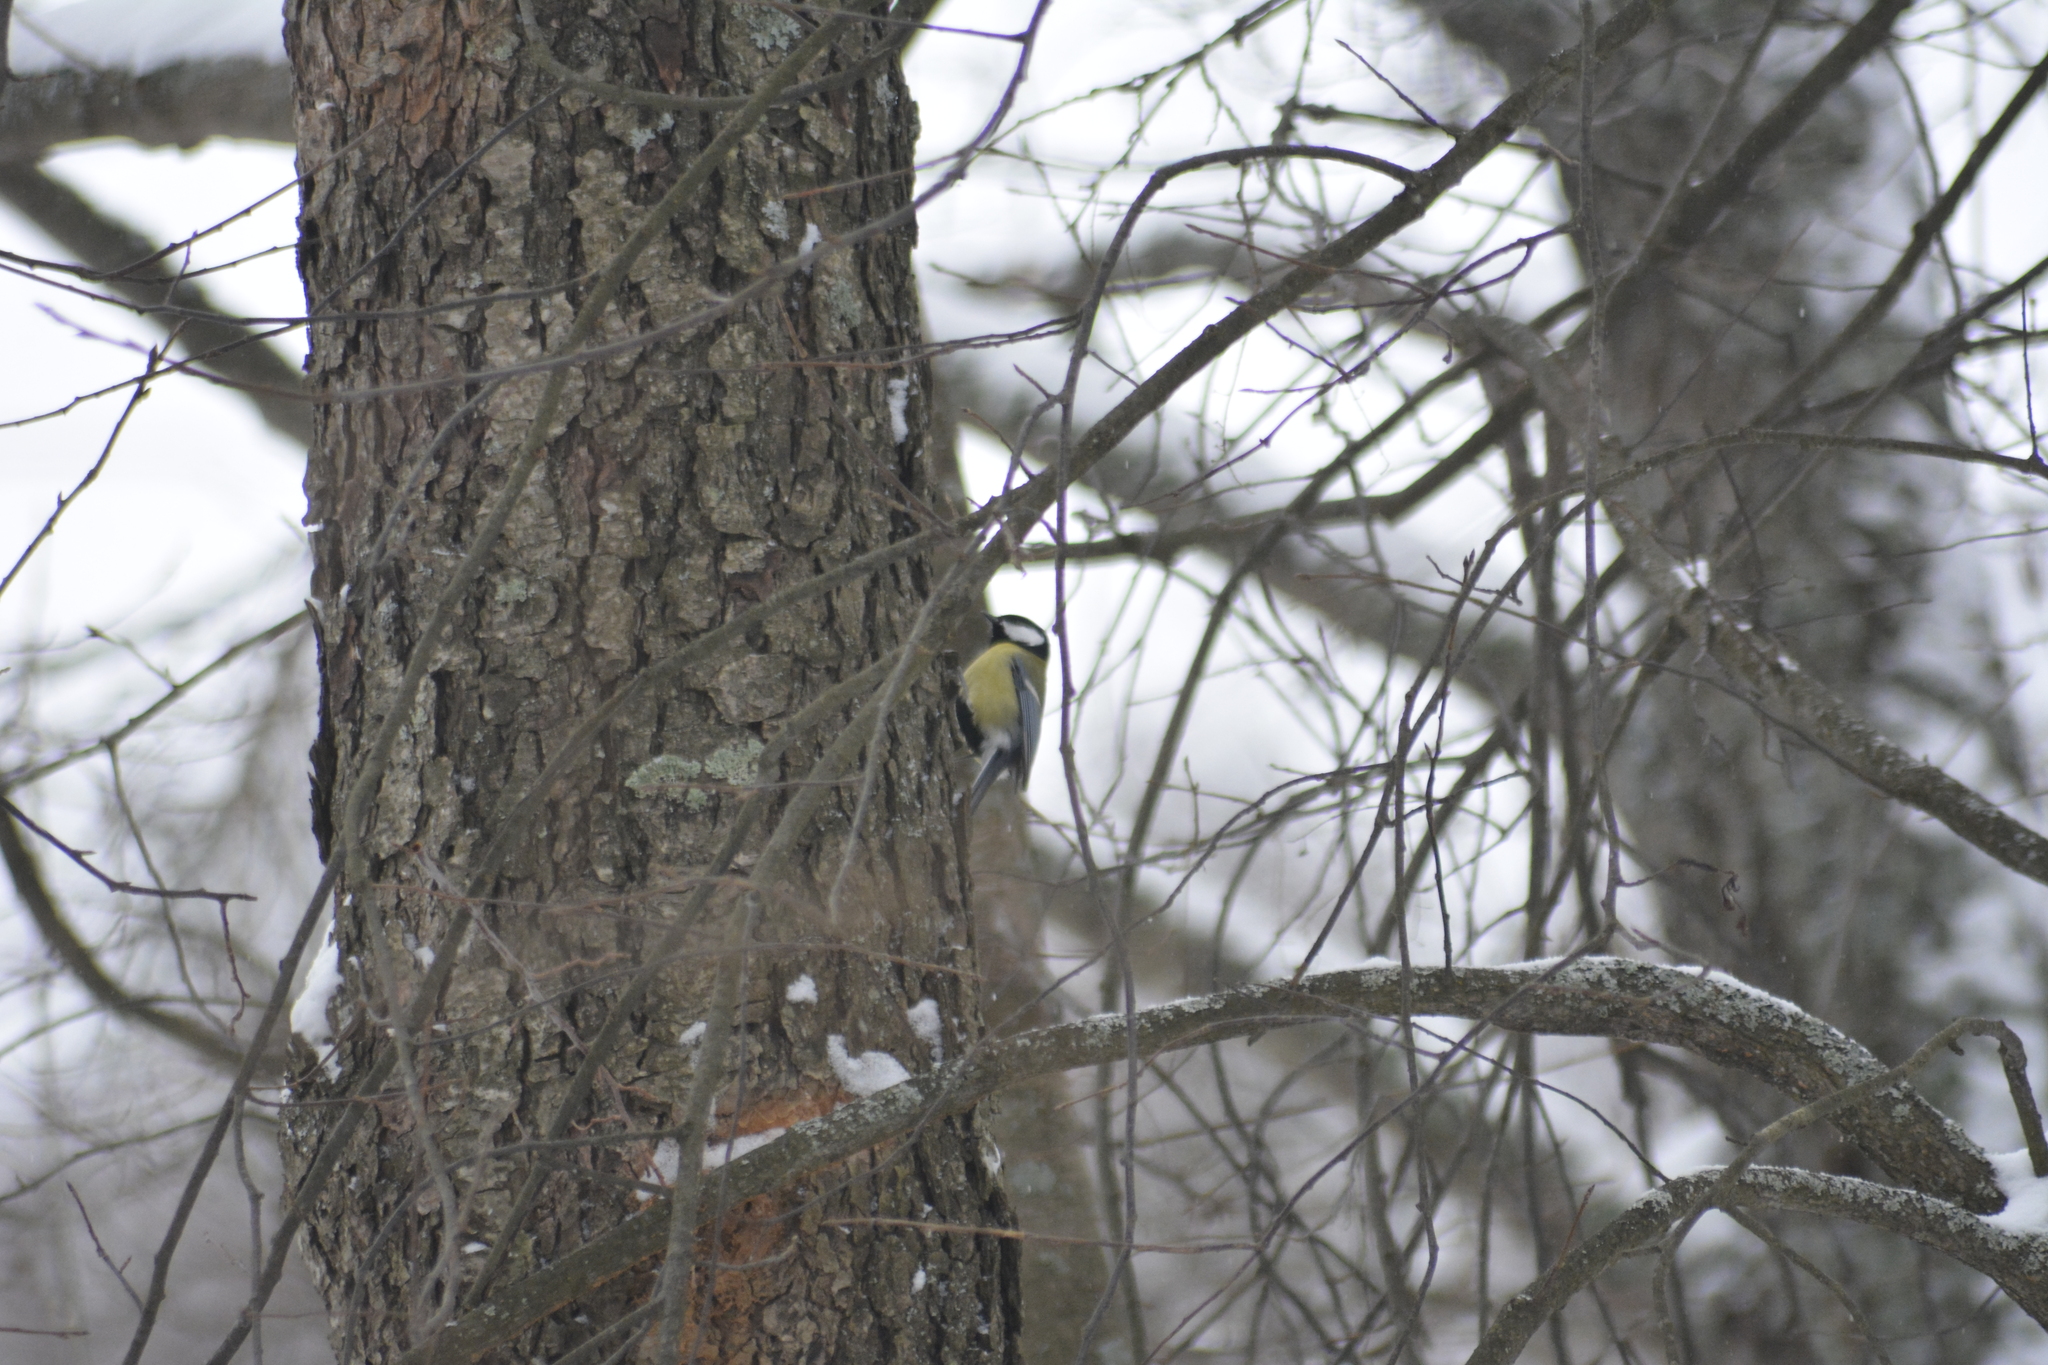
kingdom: Animalia
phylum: Chordata
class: Aves
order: Passeriformes
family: Paridae
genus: Parus
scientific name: Parus major
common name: Great tit
